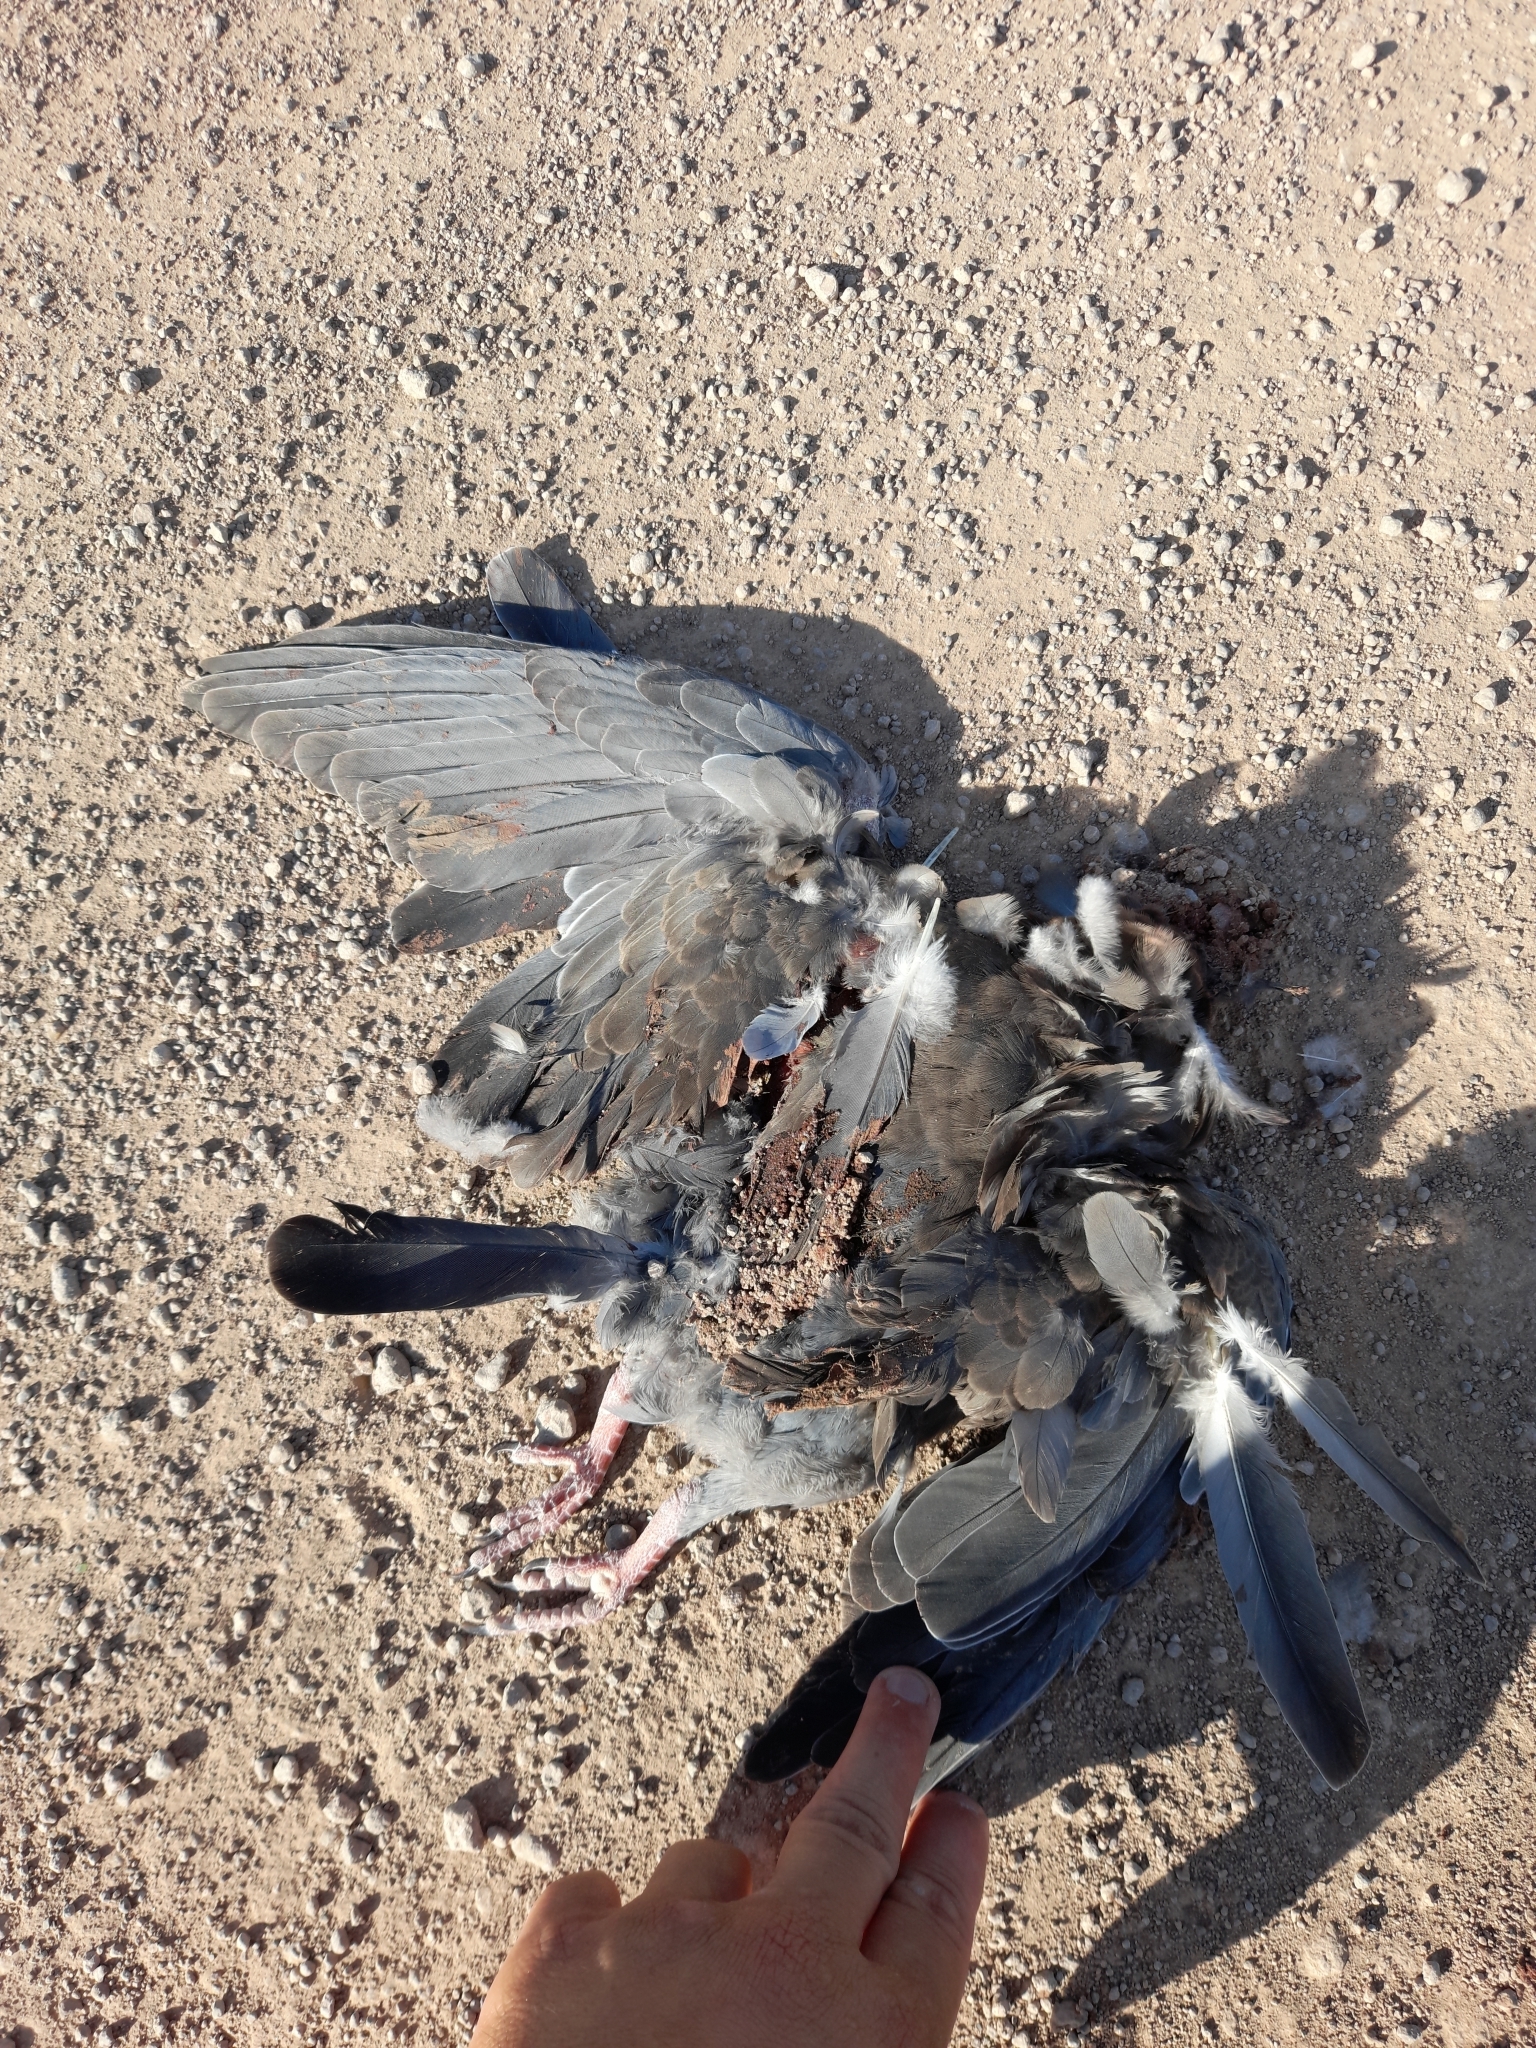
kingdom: Animalia
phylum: Chordata
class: Aves
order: Columbiformes
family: Columbidae
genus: Patagioenas
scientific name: Patagioenas picazuro
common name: Picazuro pigeon
